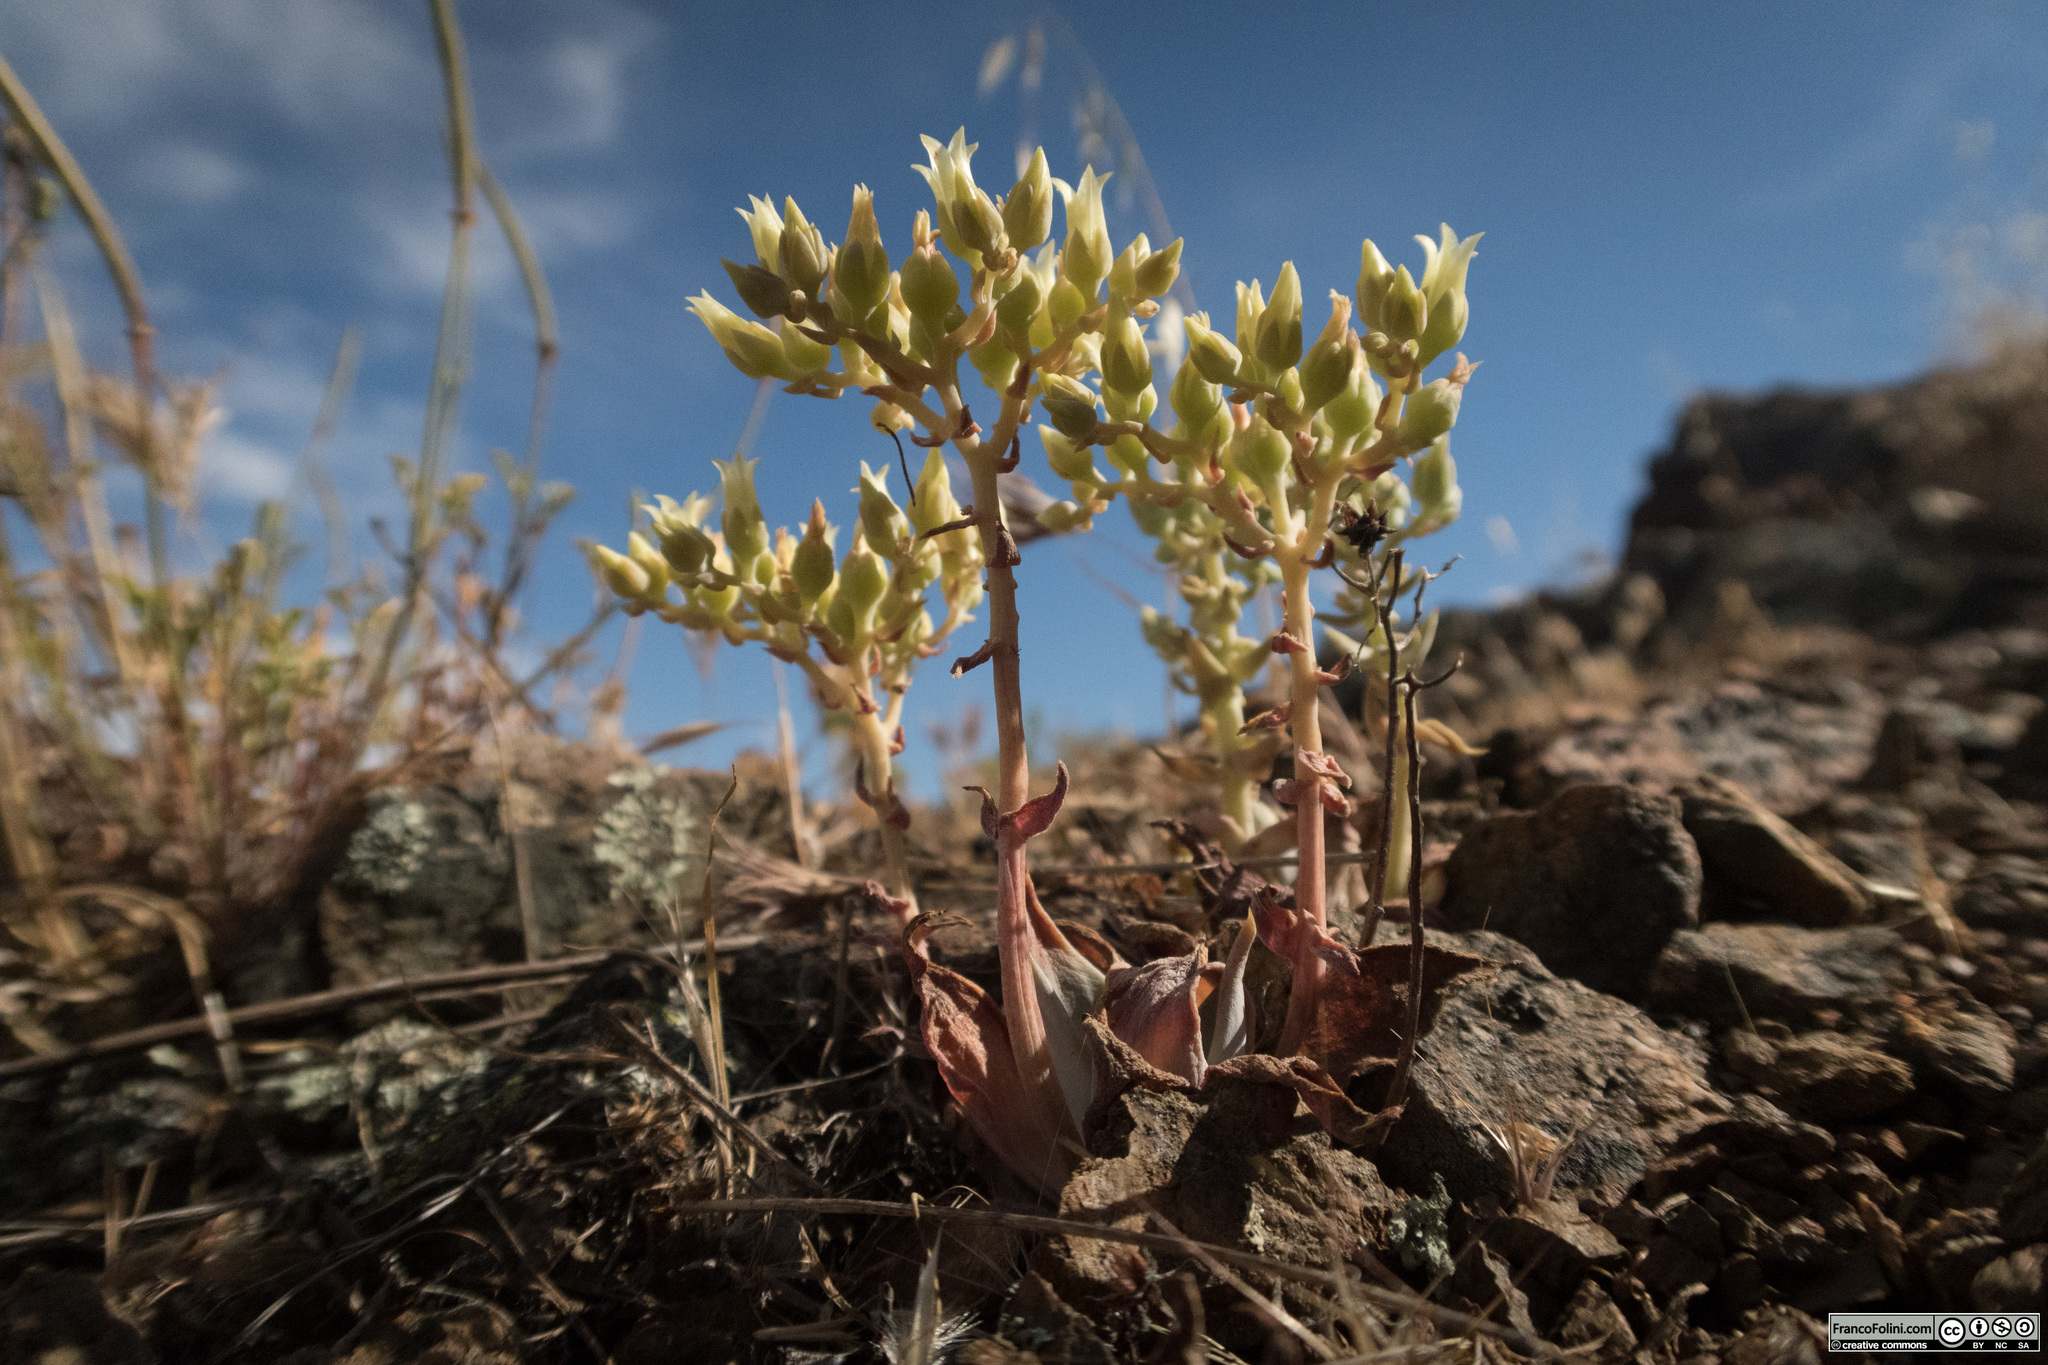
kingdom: Plantae
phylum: Tracheophyta
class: Magnoliopsida
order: Saxifragales
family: Crassulaceae
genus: Dudleya
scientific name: Dudleya cymosa
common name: Canyon dudleya
